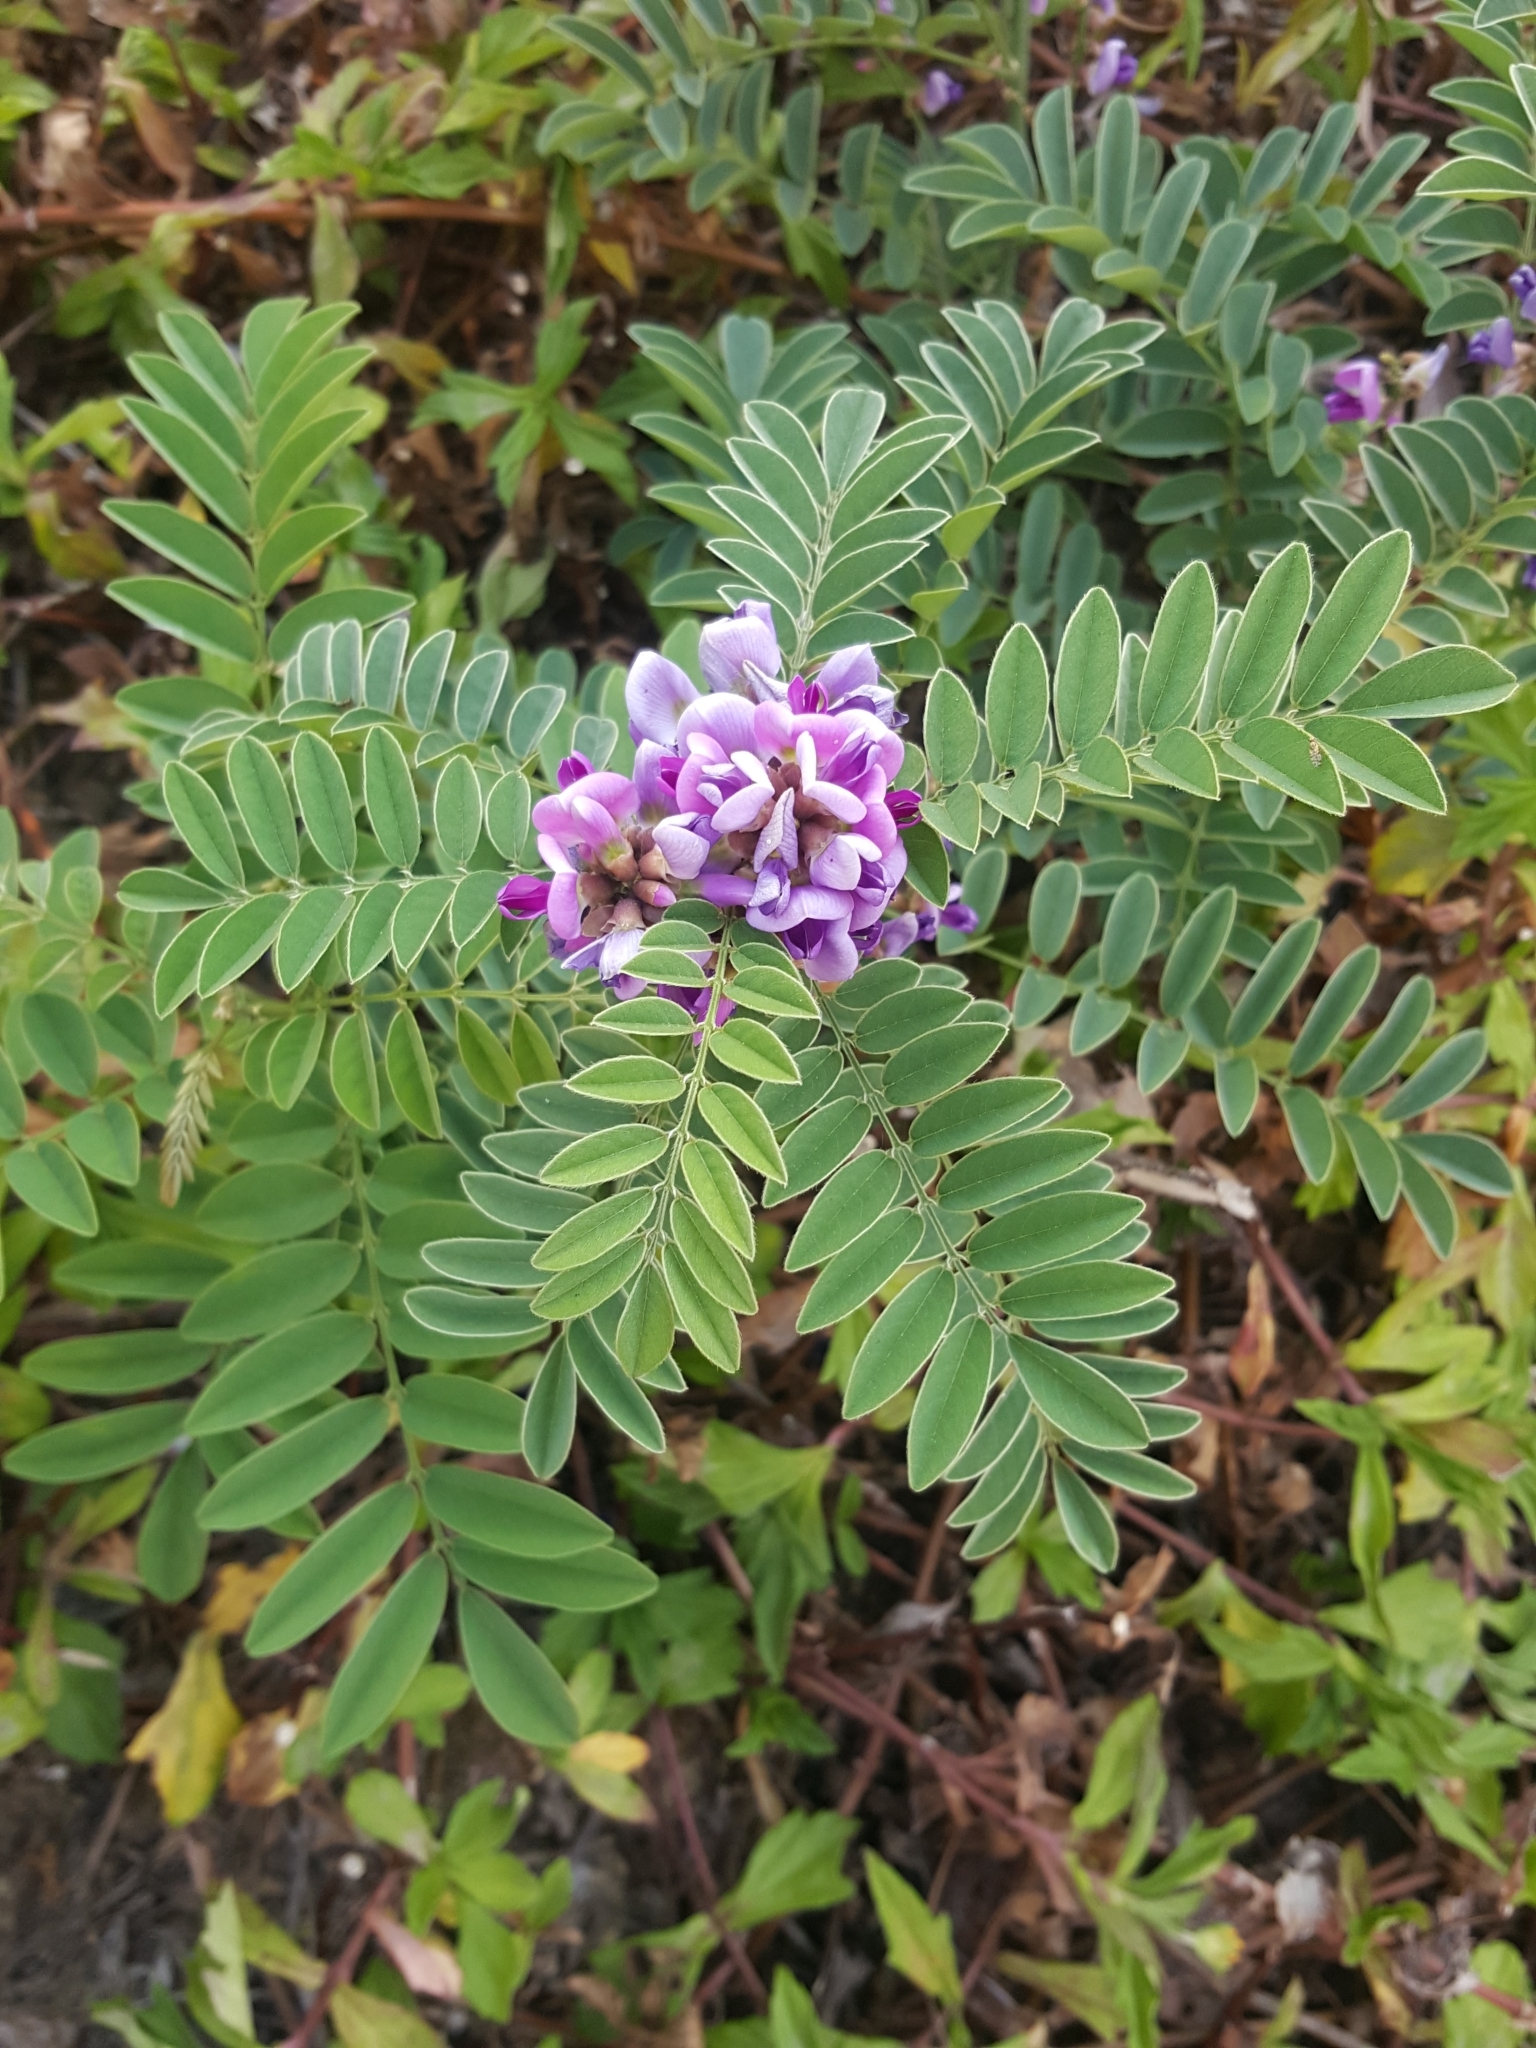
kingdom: Plantae
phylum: Tracheophyta
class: Magnoliopsida
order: Fabales
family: Fabaceae
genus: Millettia
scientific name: Millettia pulchra
